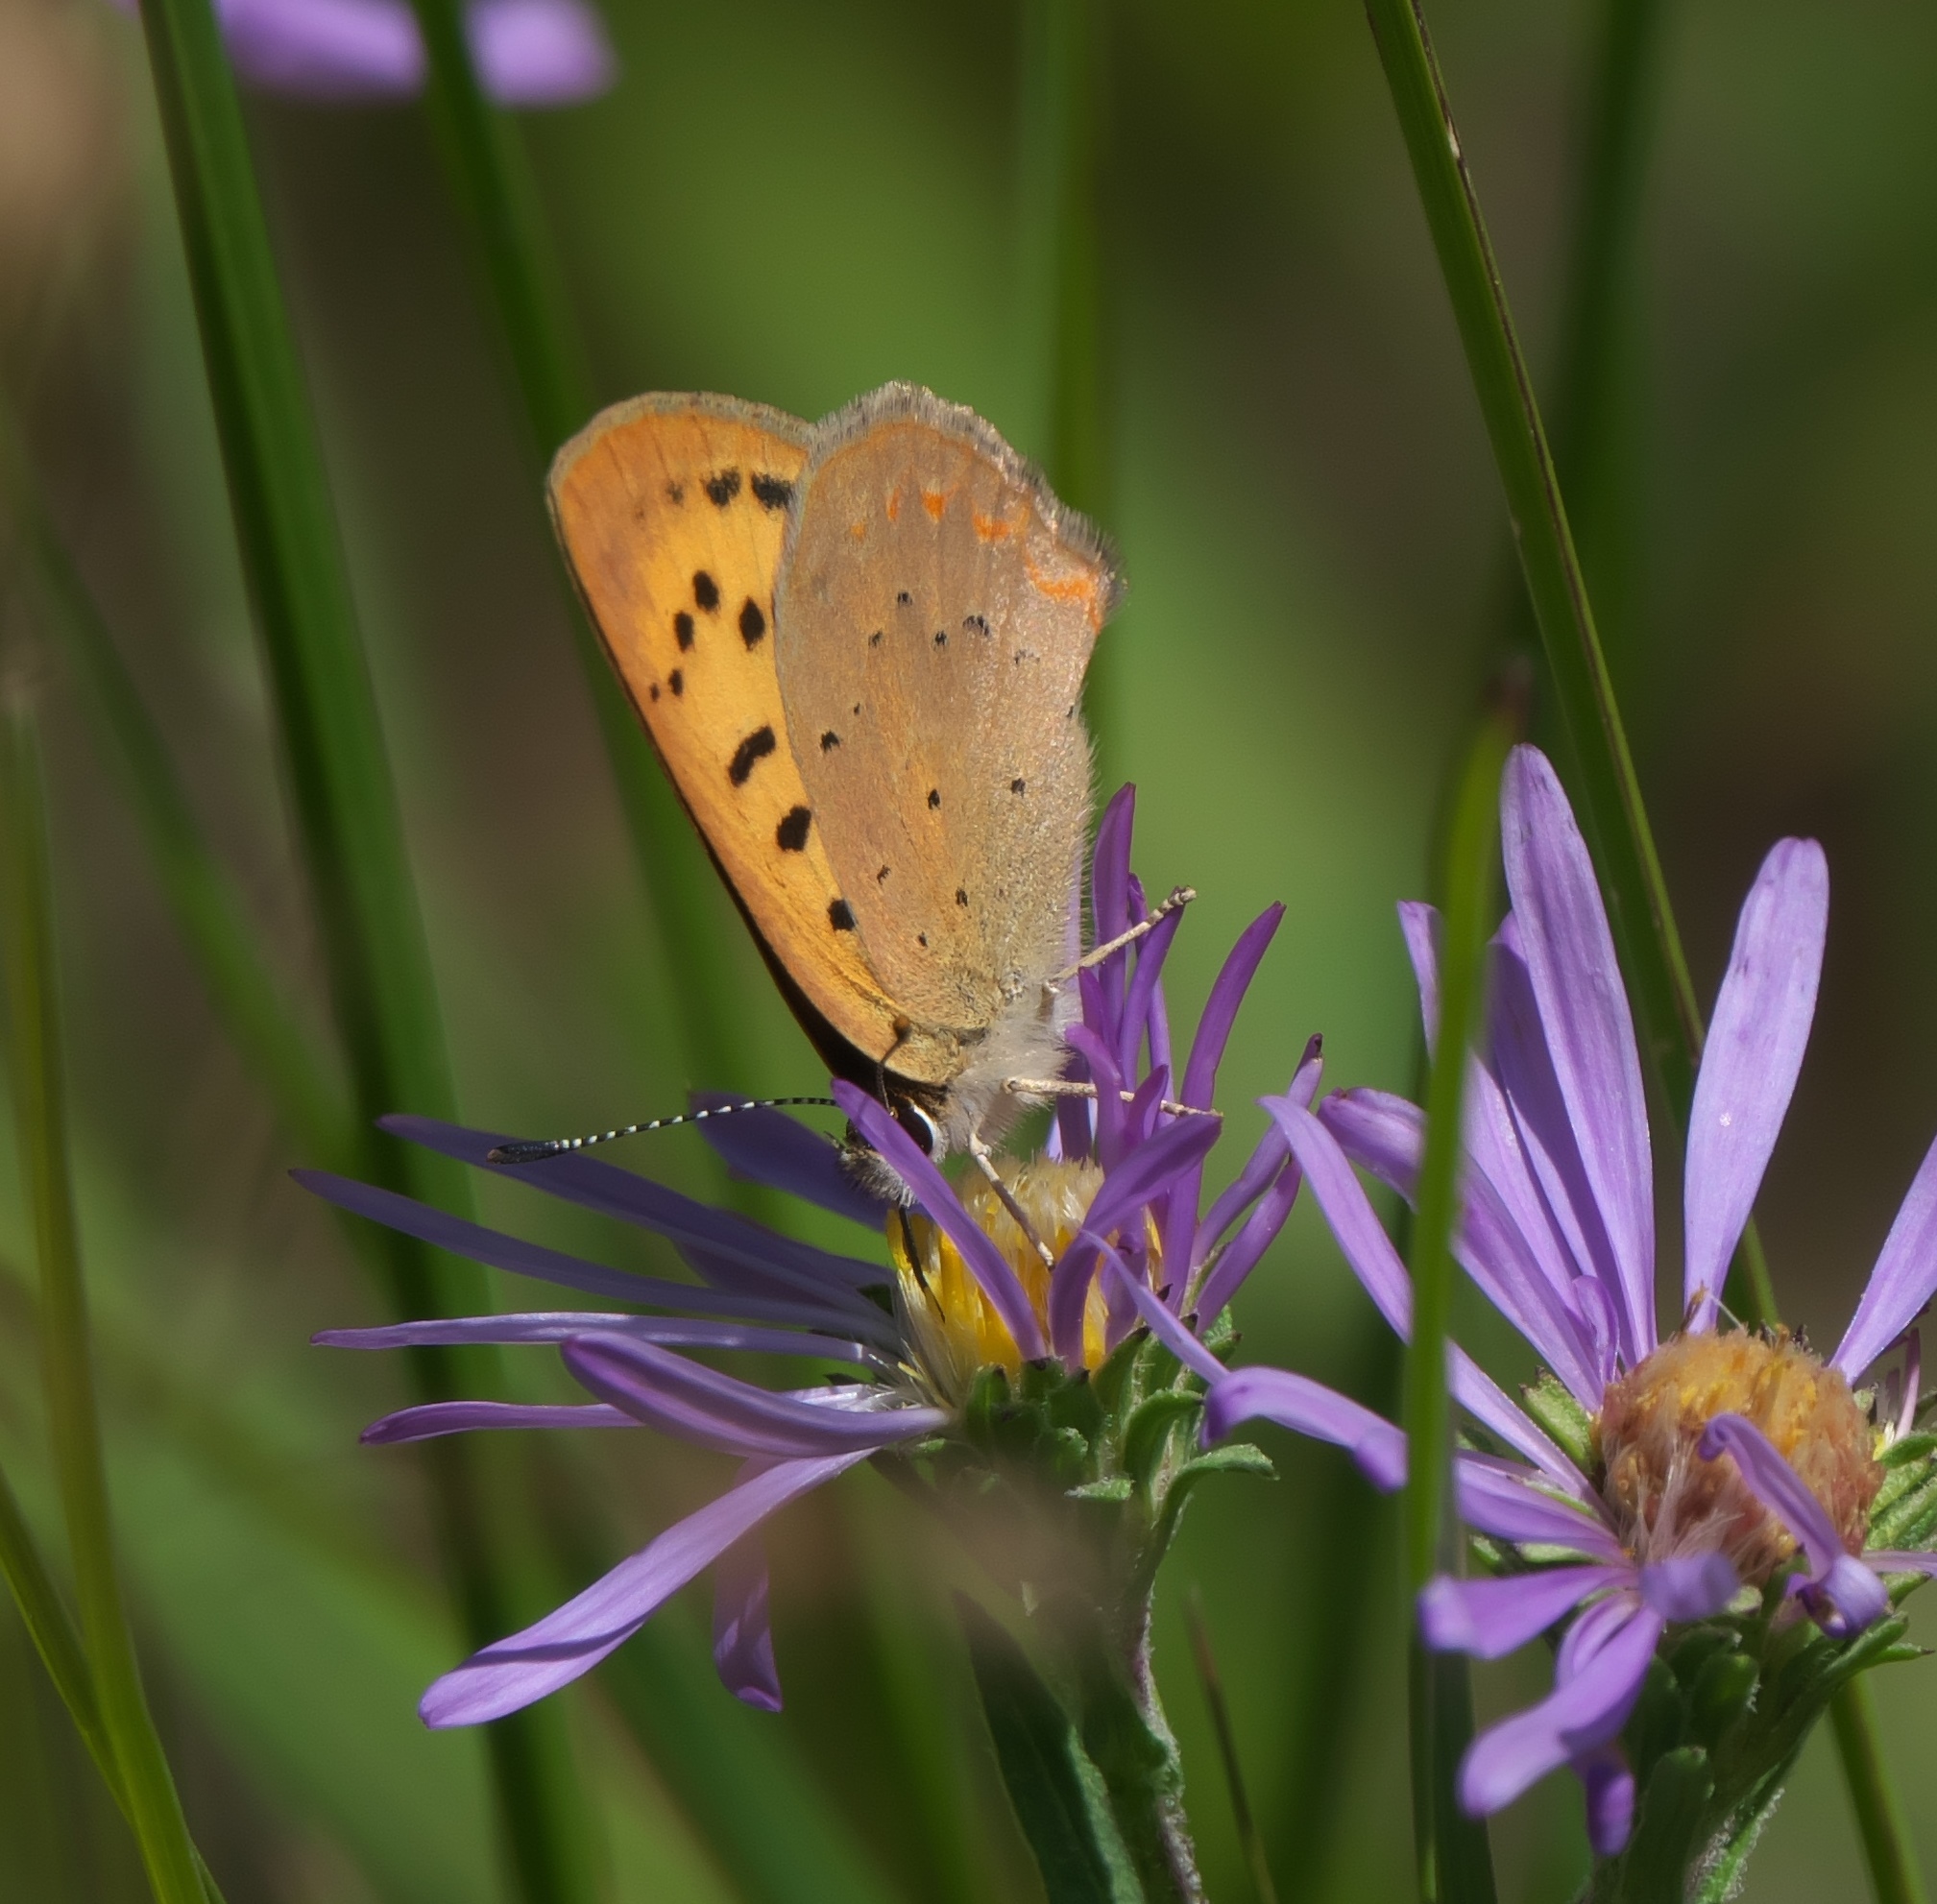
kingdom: Animalia
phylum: Arthropoda
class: Insecta
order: Lepidoptera
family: Lycaenidae
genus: Tharsalea
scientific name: Tharsalea dorcas
